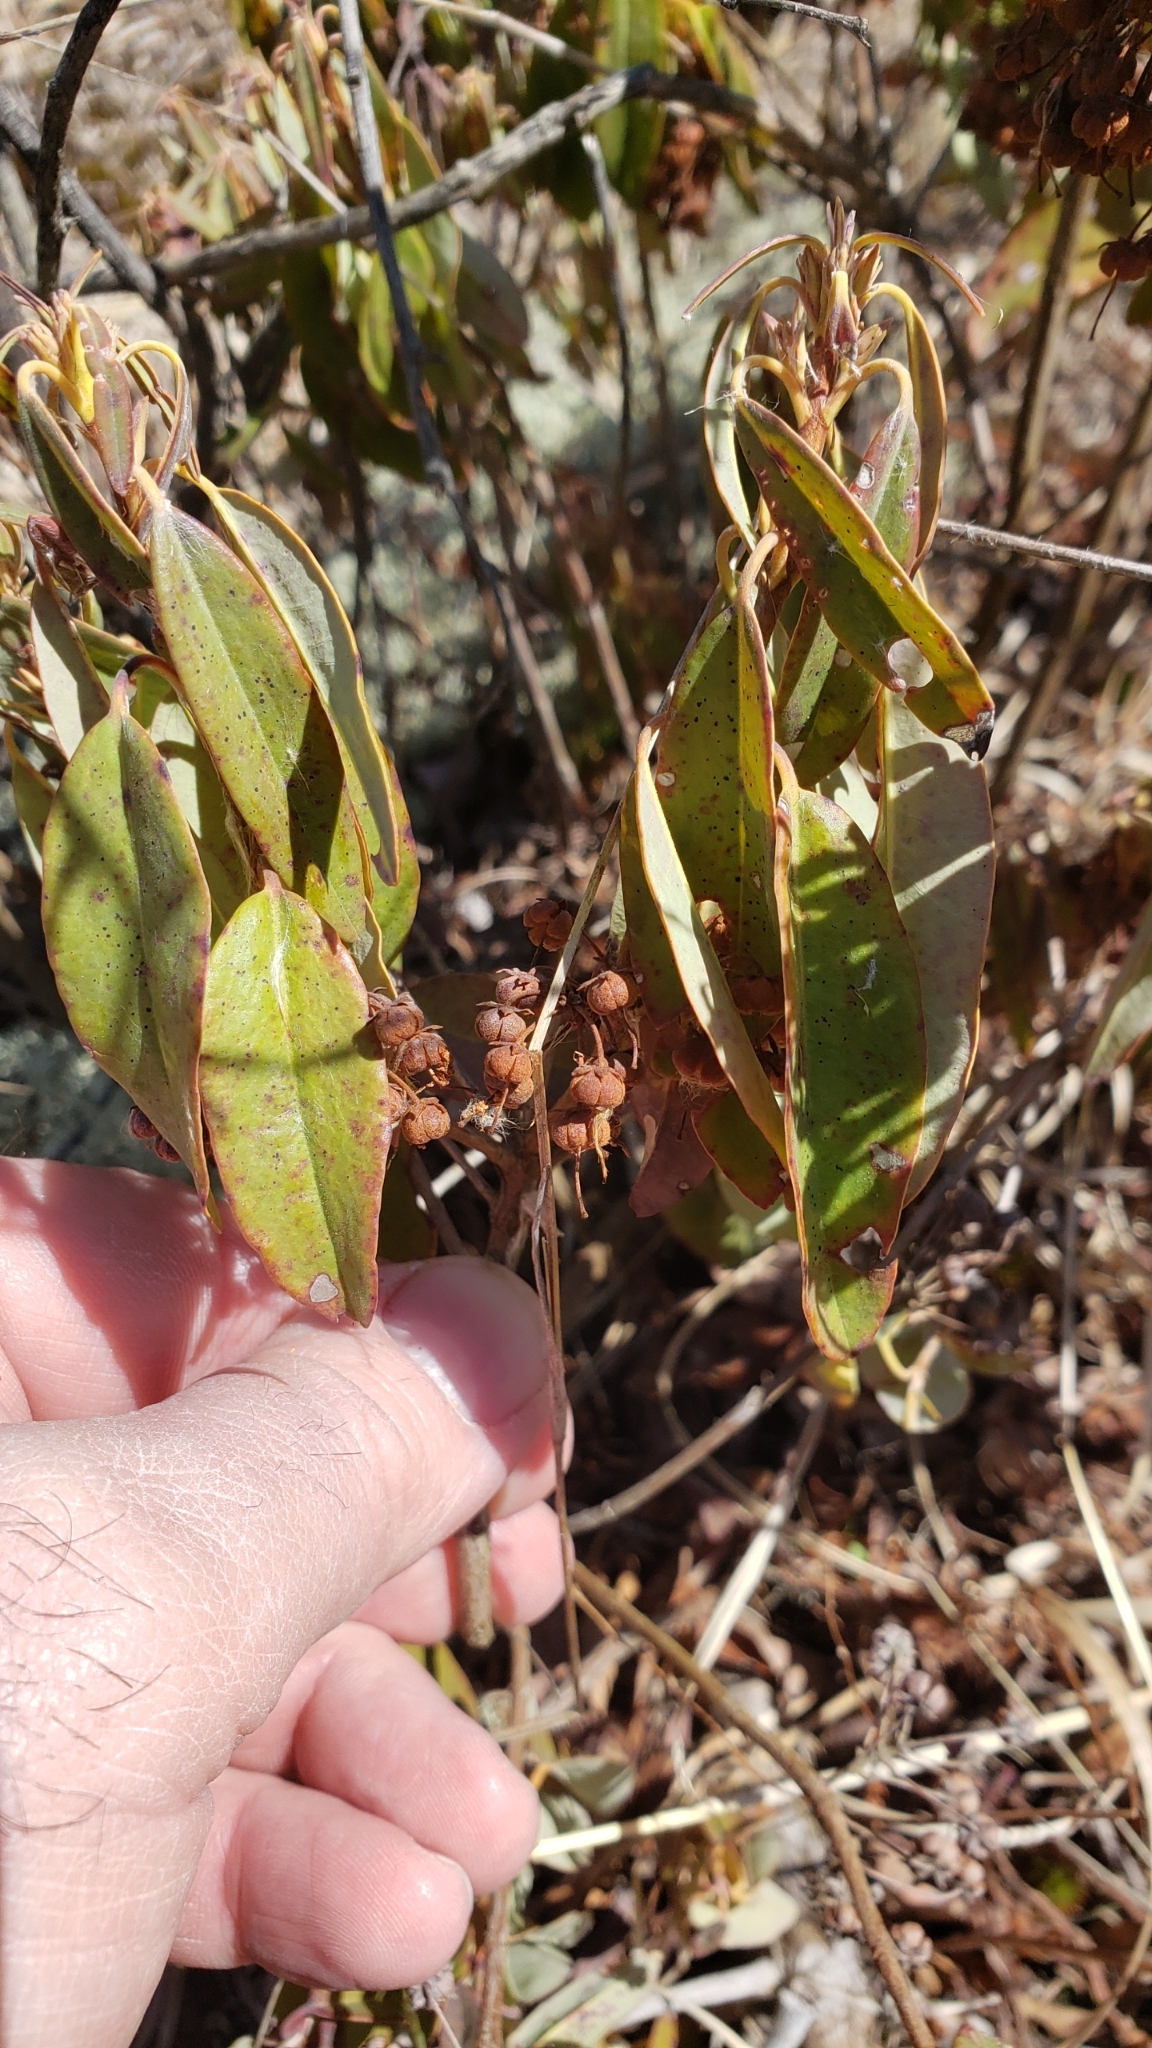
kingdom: Plantae
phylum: Tracheophyta
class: Magnoliopsida
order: Ericales
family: Ericaceae
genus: Kalmia
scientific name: Kalmia angustifolia
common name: Sheep-laurel
